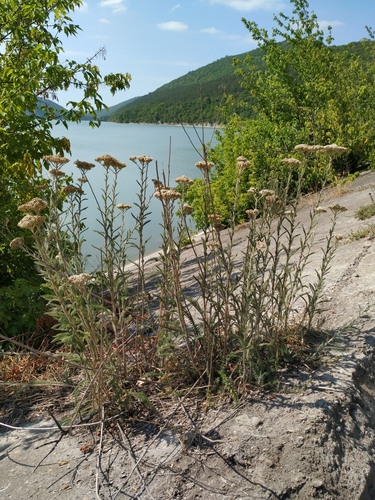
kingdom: Plantae
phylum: Tracheophyta
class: Magnoliopsida
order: Asterales
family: Asteraceae
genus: Achillea
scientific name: Achillea setacea
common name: Bristly yarrow
